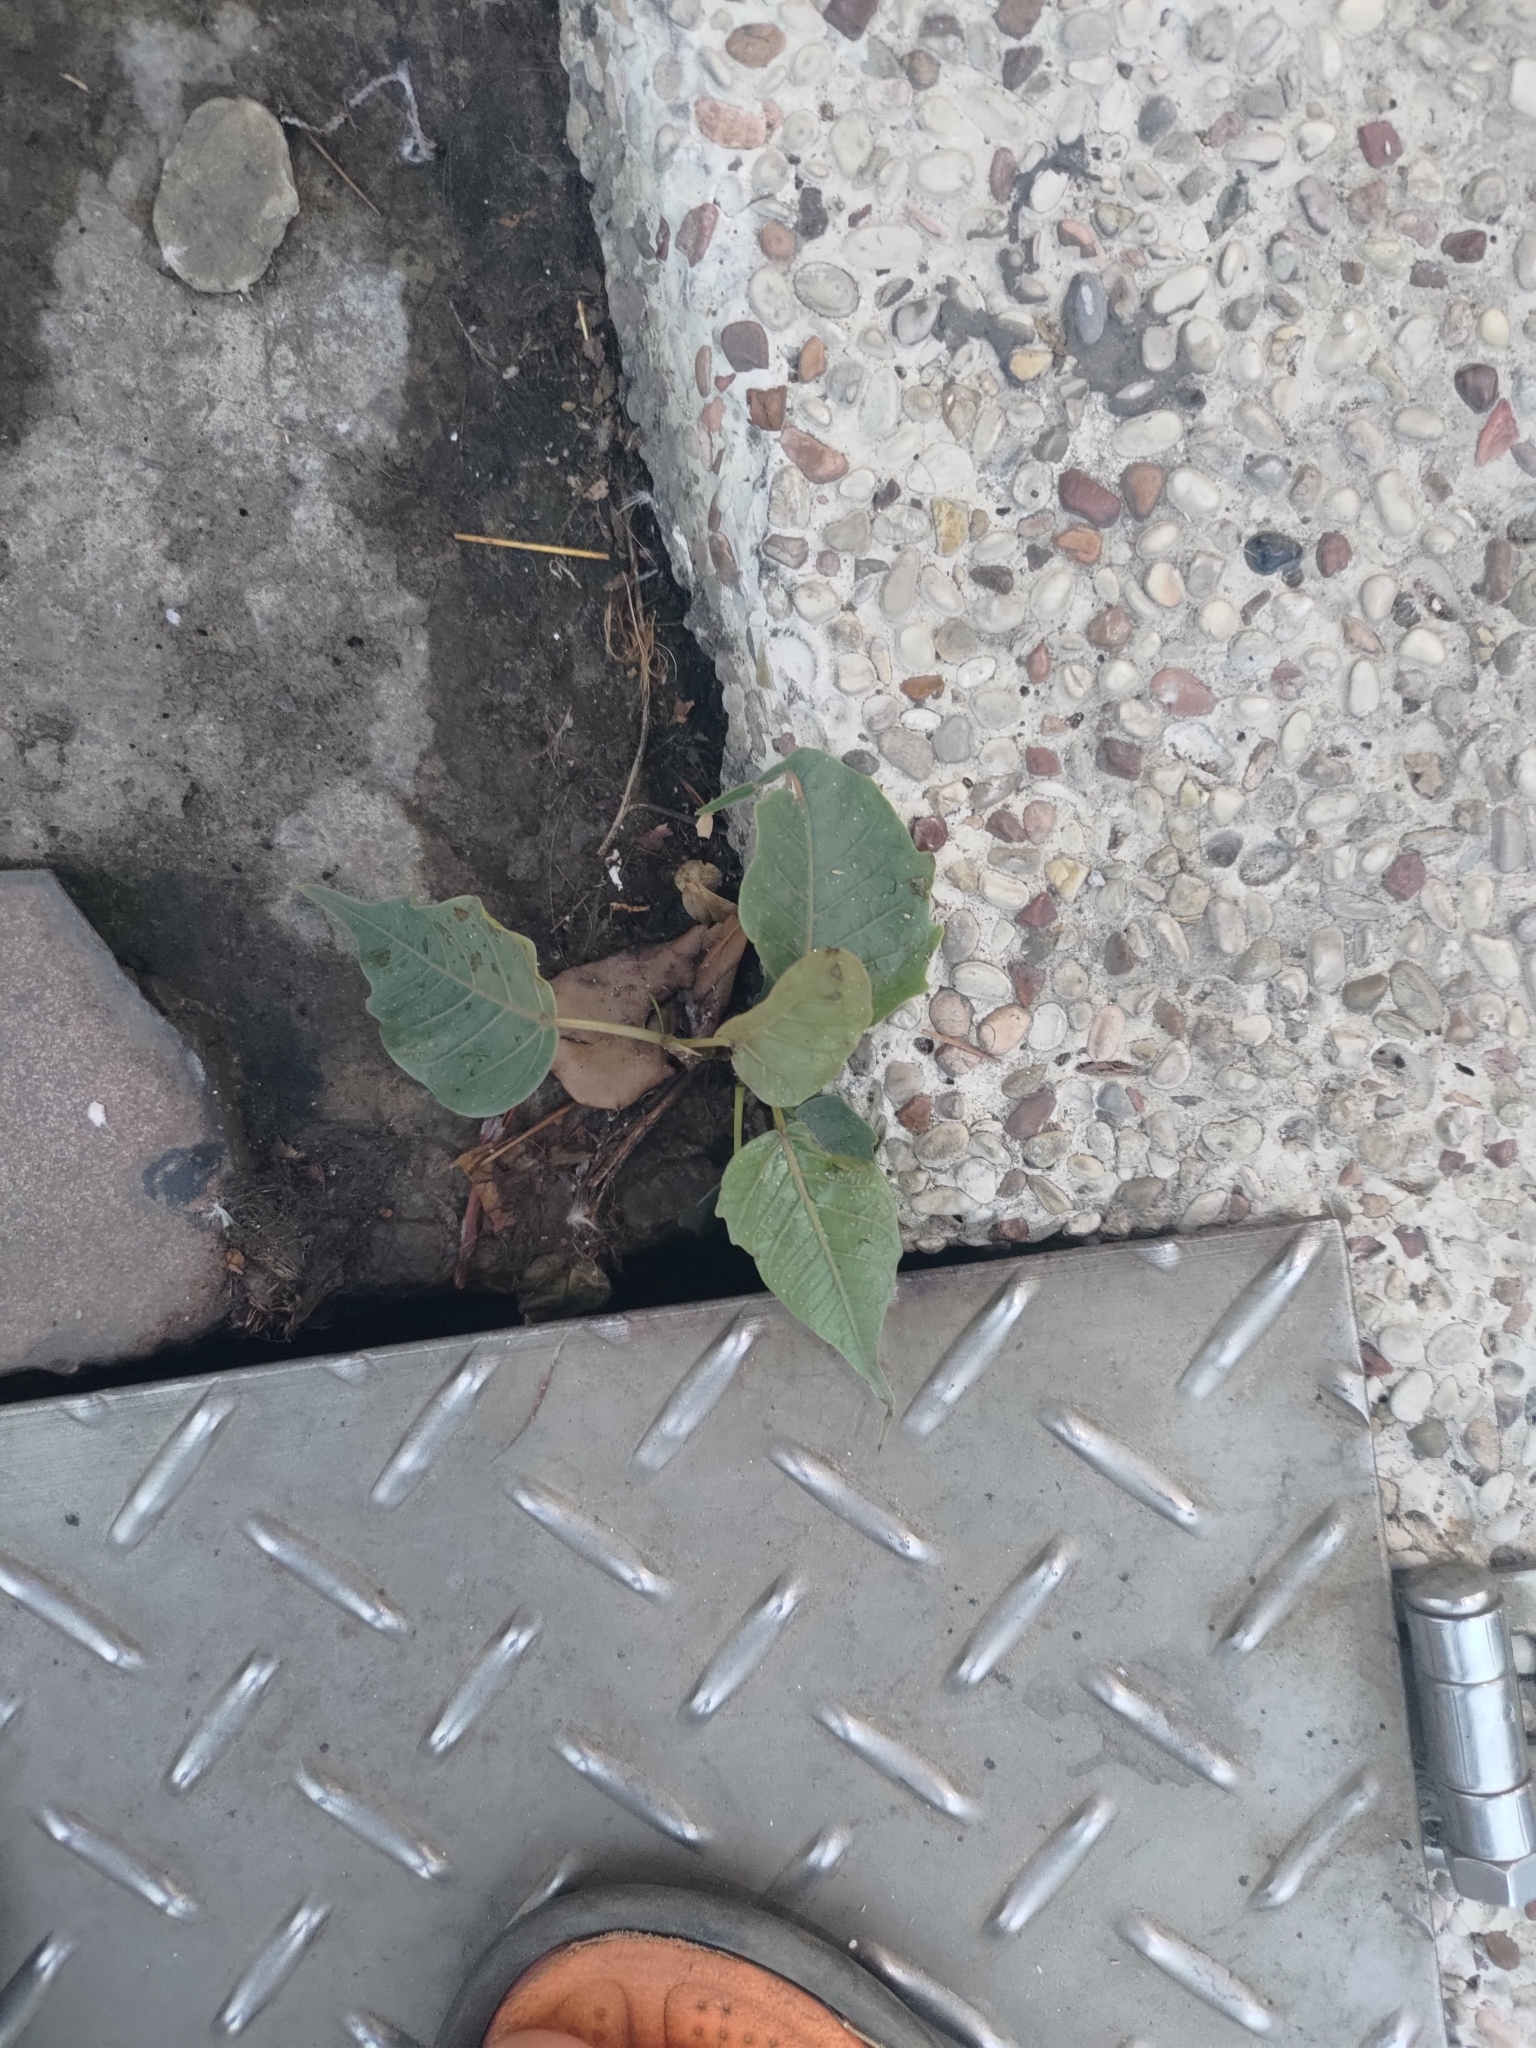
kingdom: Plantae
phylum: Tracheophyta
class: Magnoliopsida
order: Rosales
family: Moraceae
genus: Ficus
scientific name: Ficus religiosa
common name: Bodhi tree
